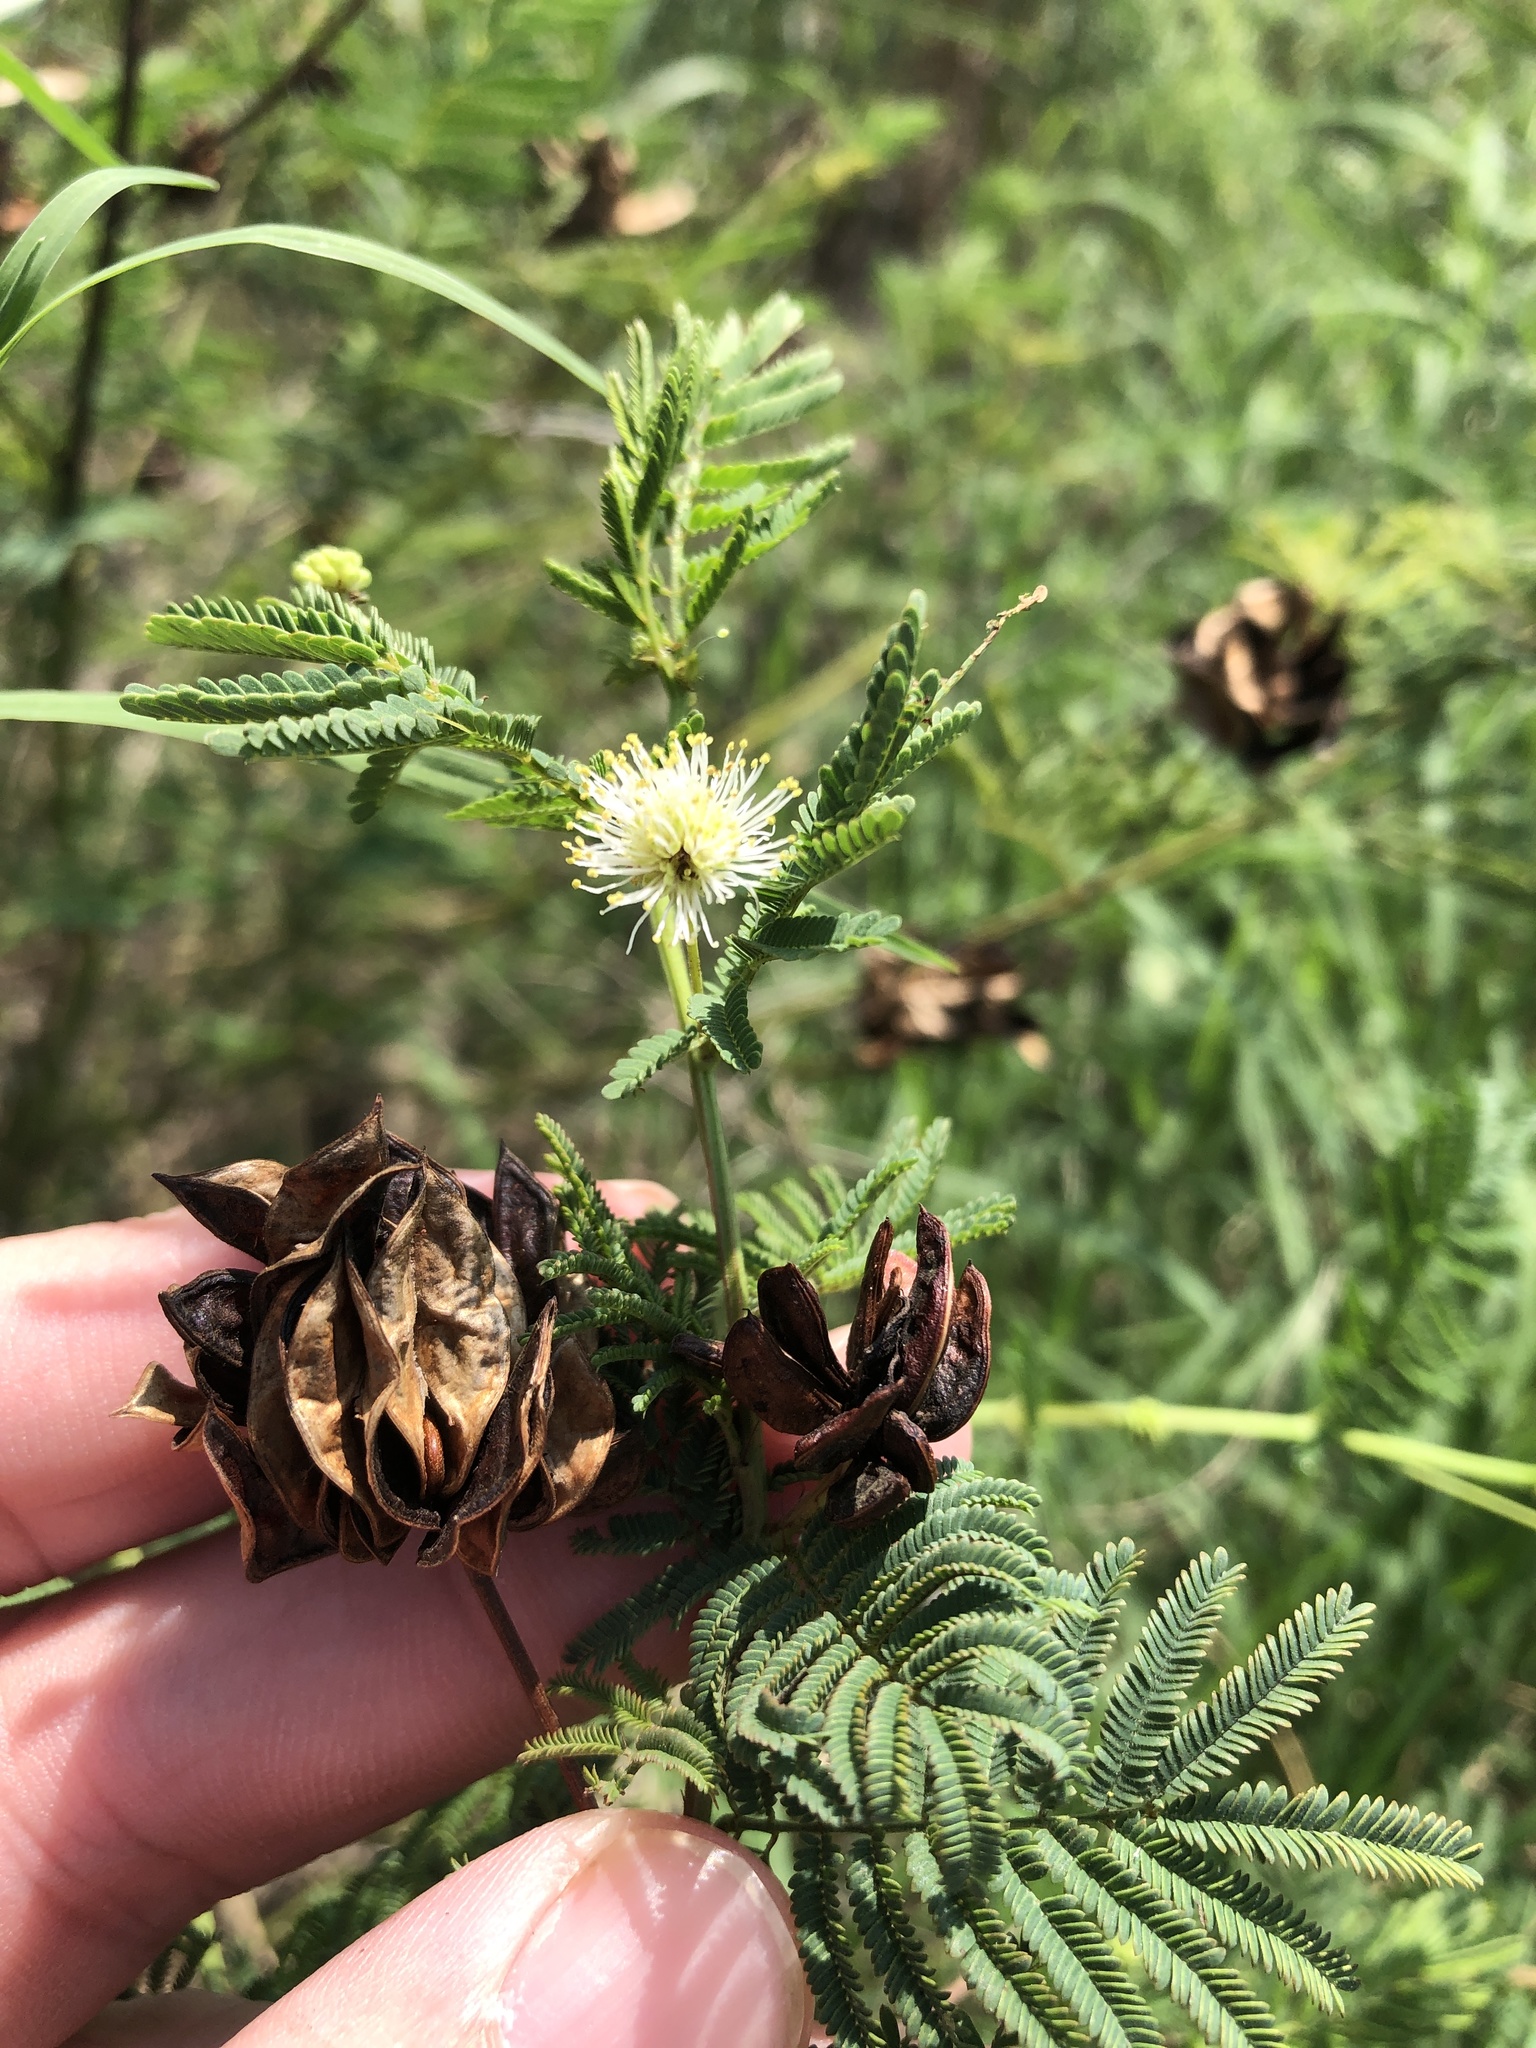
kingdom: Plantae
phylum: Tracheophyta
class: Magnoliopsida
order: Fabales
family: Fabaceae
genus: Desmanthus
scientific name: Desmanthus illinoensis
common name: Illinois bundle-flower
